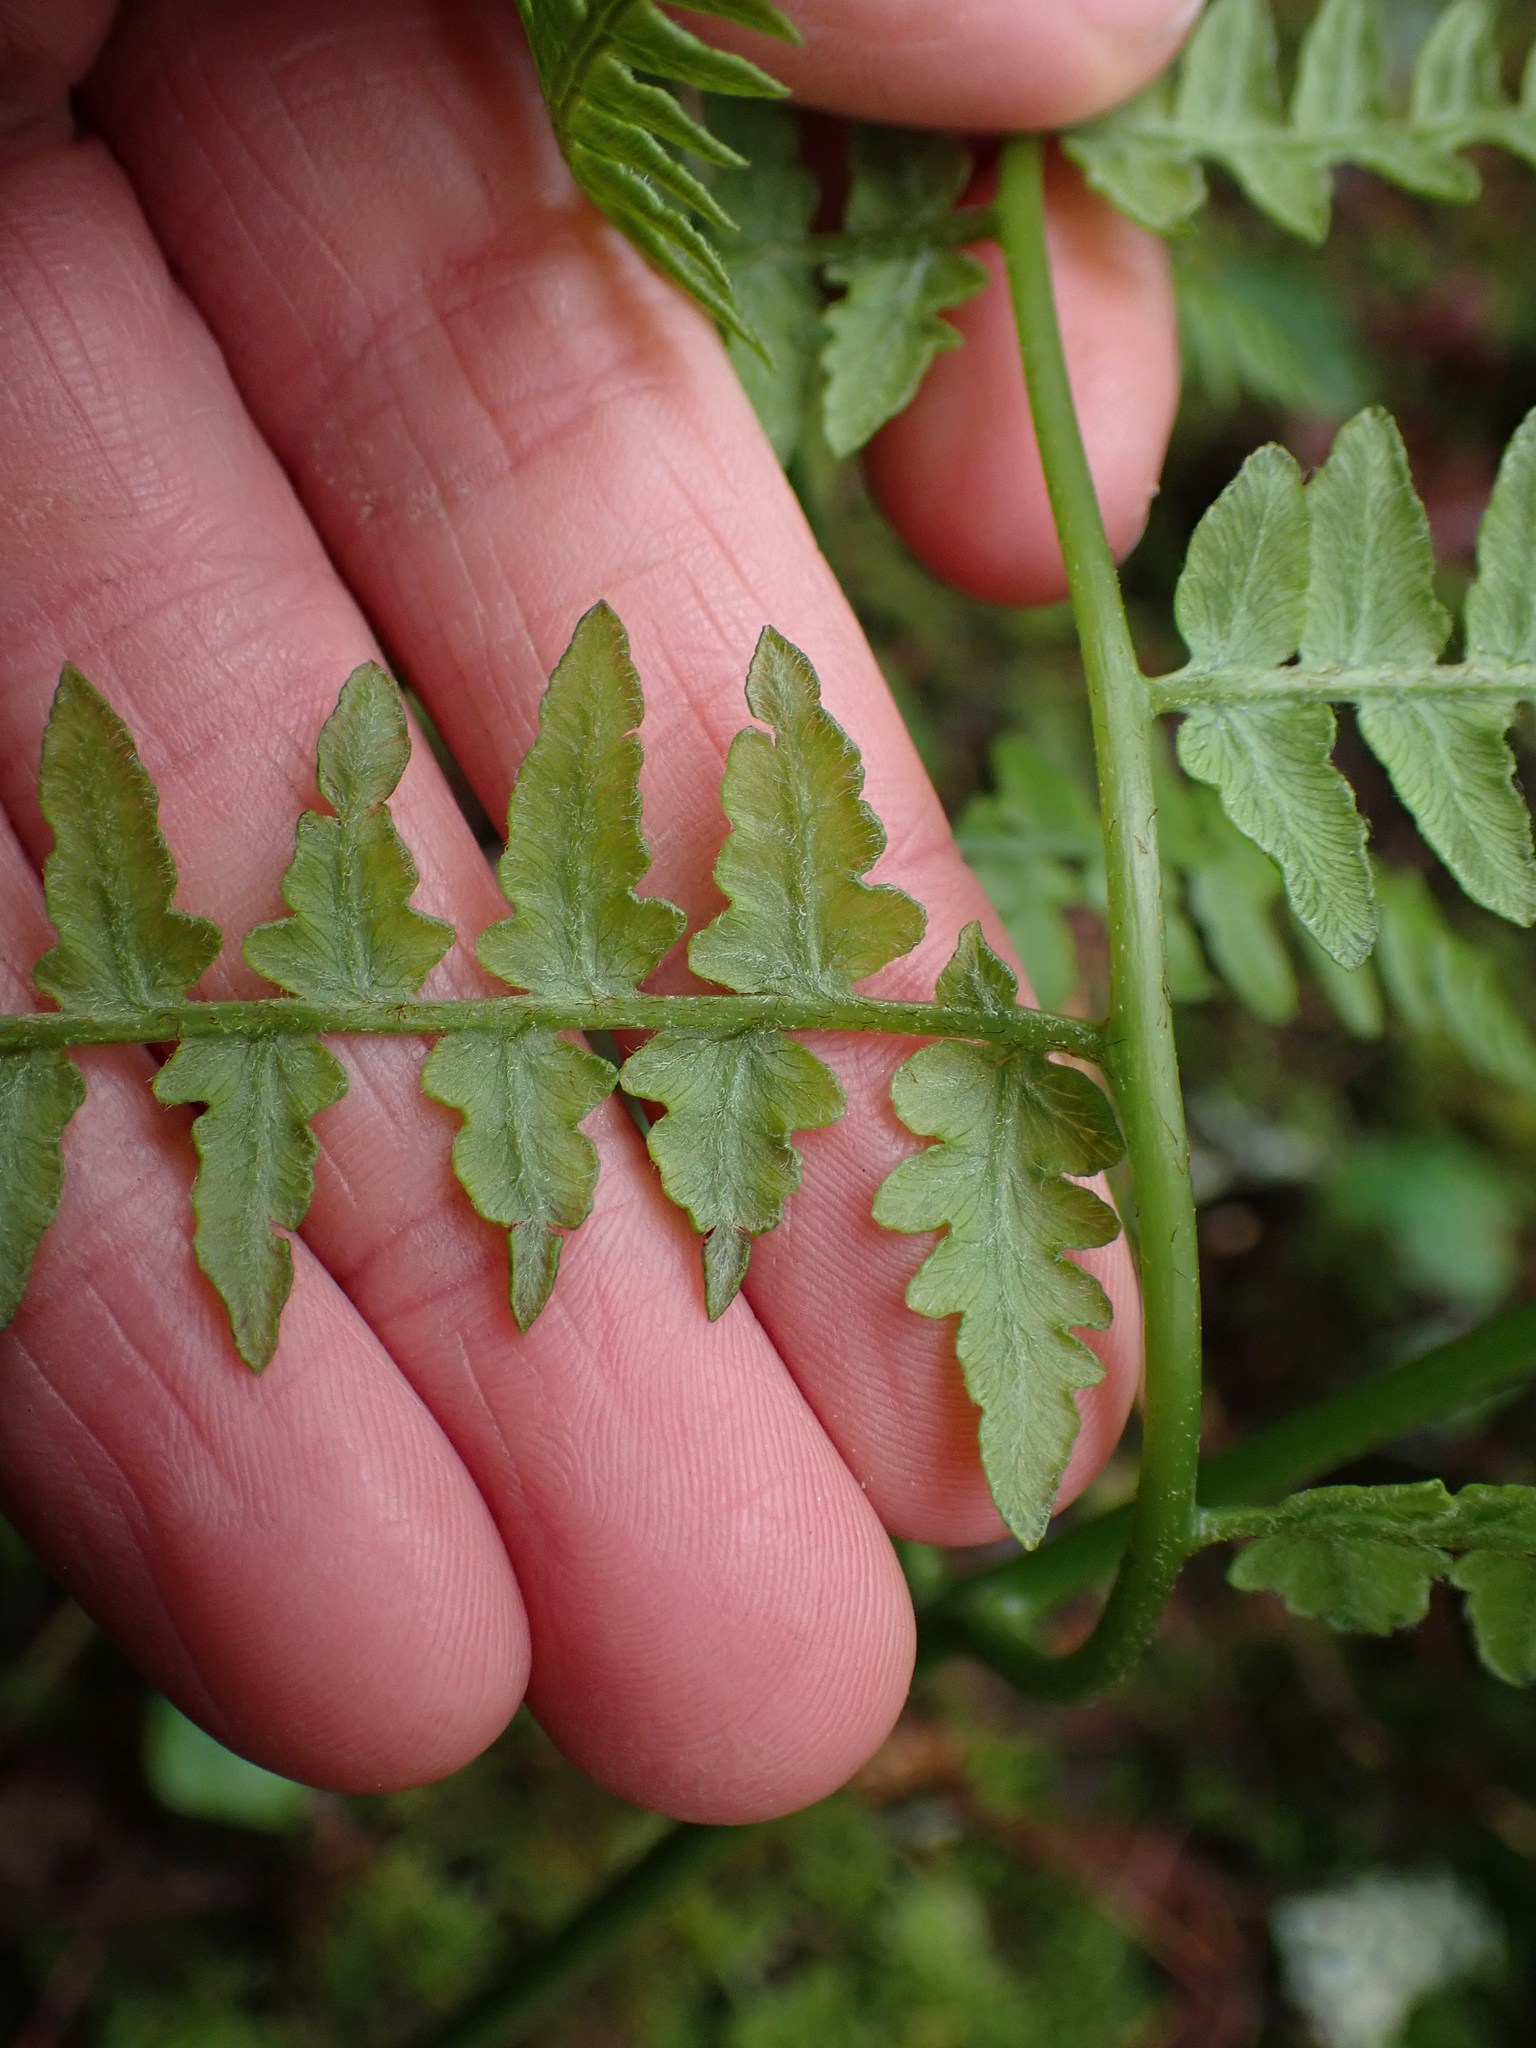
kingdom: Plantae
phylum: Tracheophyta
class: Polypodiopsida
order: Polypodiales
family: Dennstaedtiaceae
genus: Pteridium
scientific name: Pteridium aquilinum
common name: Bracken
